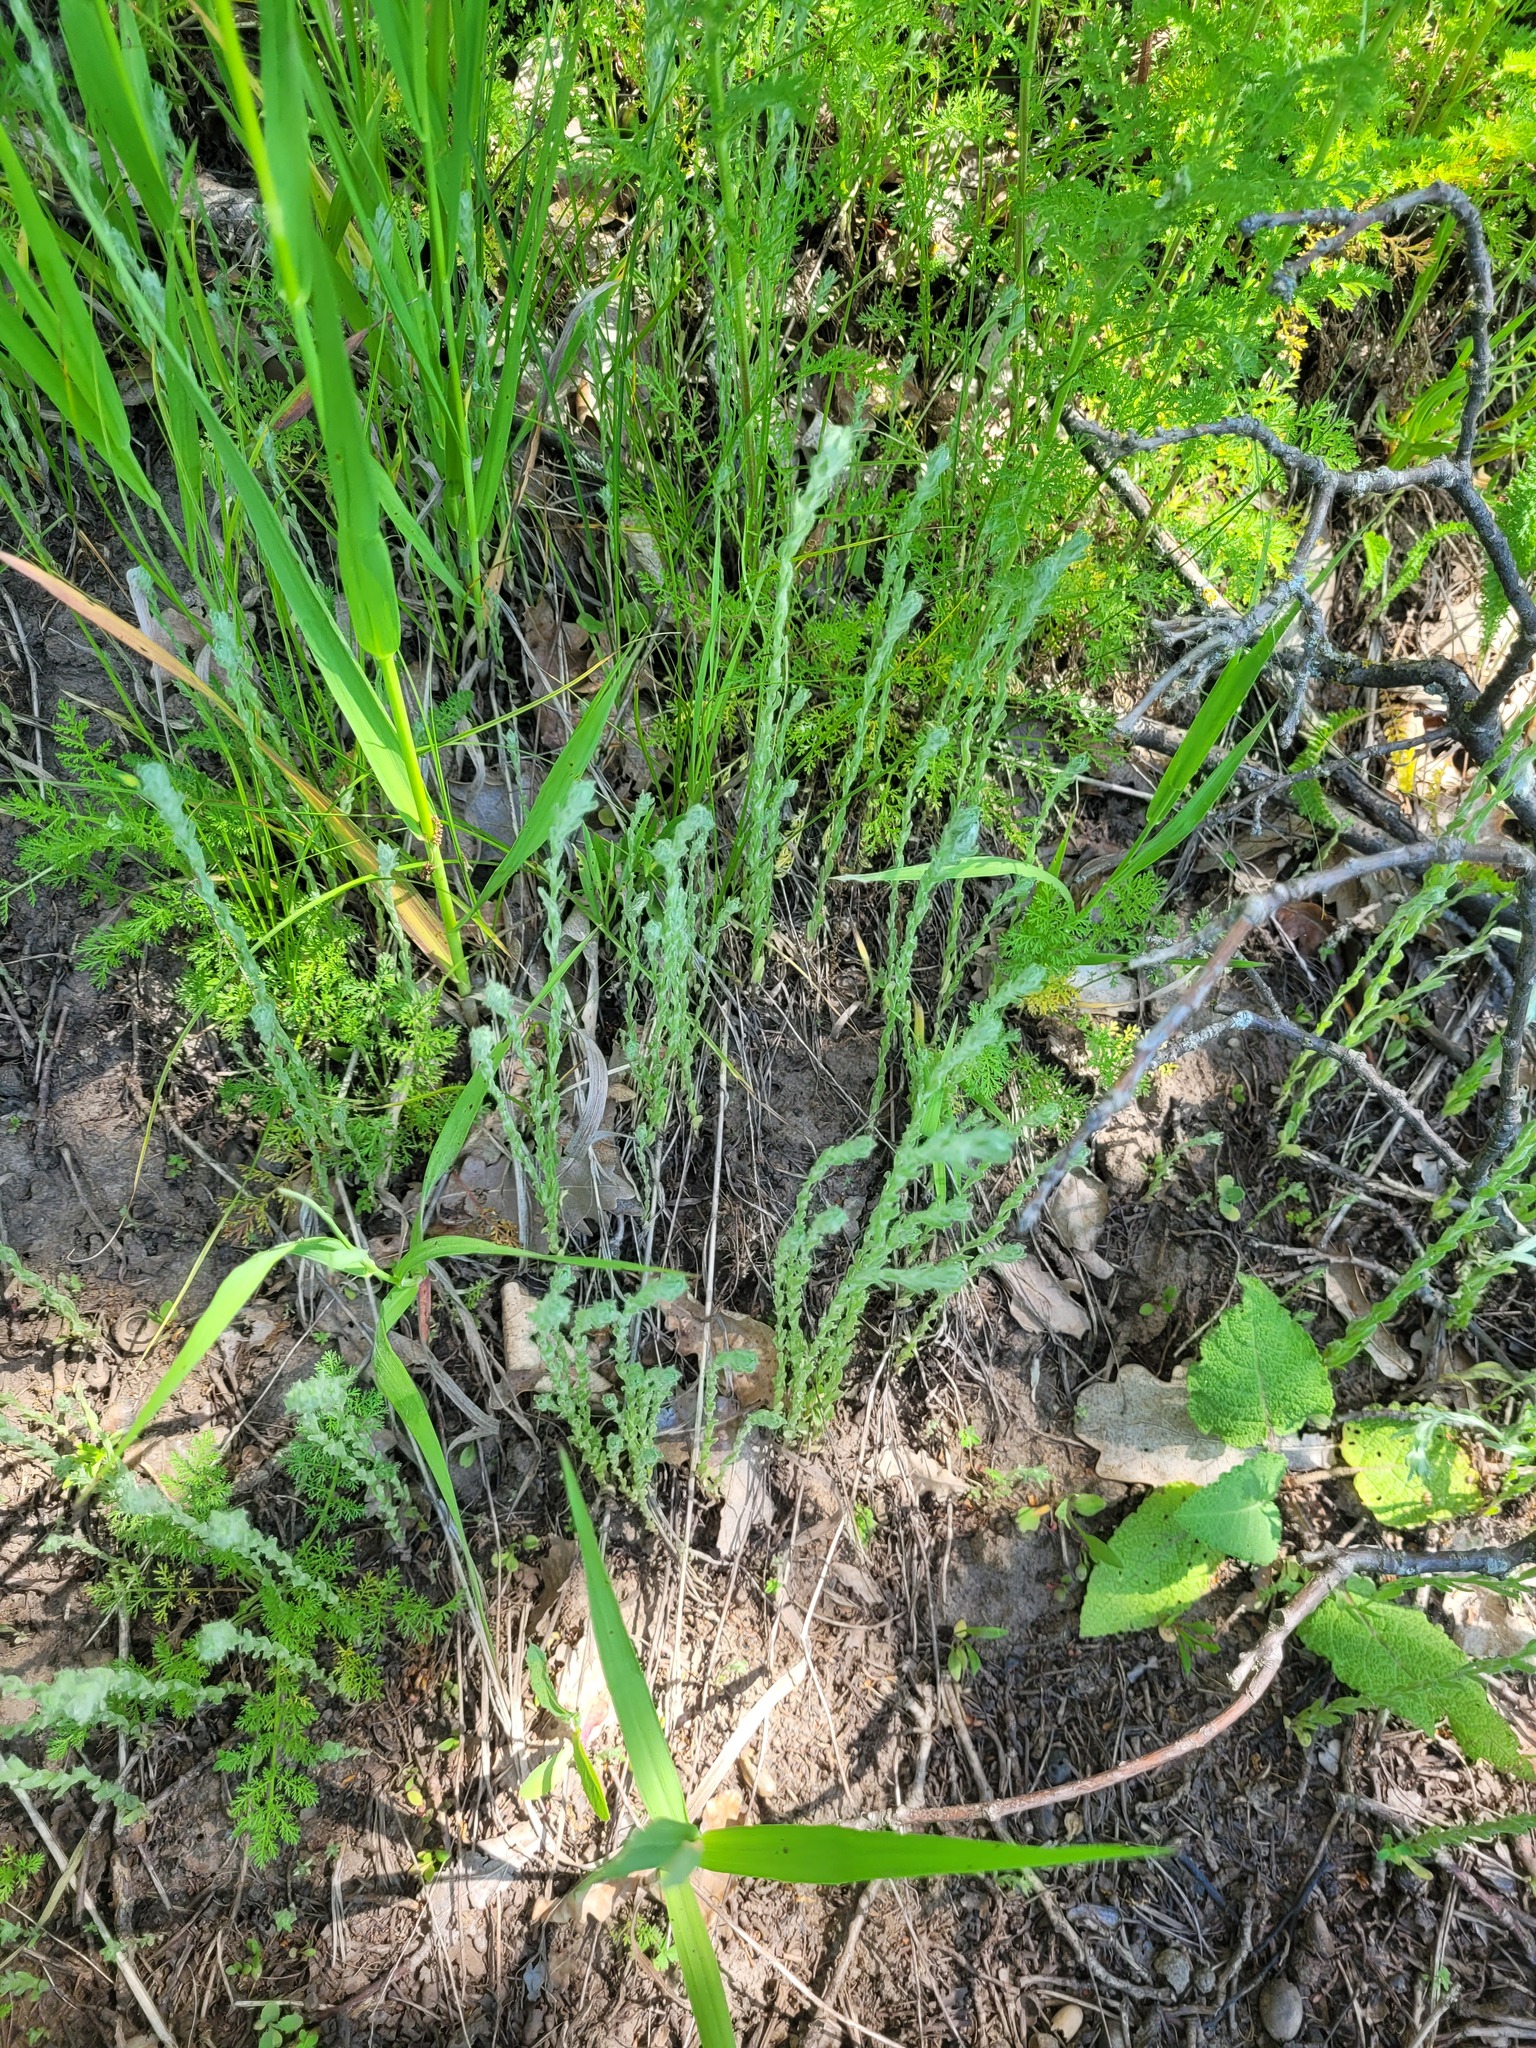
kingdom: Plantae
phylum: Tracheophyta
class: Magnoliopsida
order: Asterales
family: Asteraceae
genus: Filago
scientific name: Filago arvensis
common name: Field cudweed
